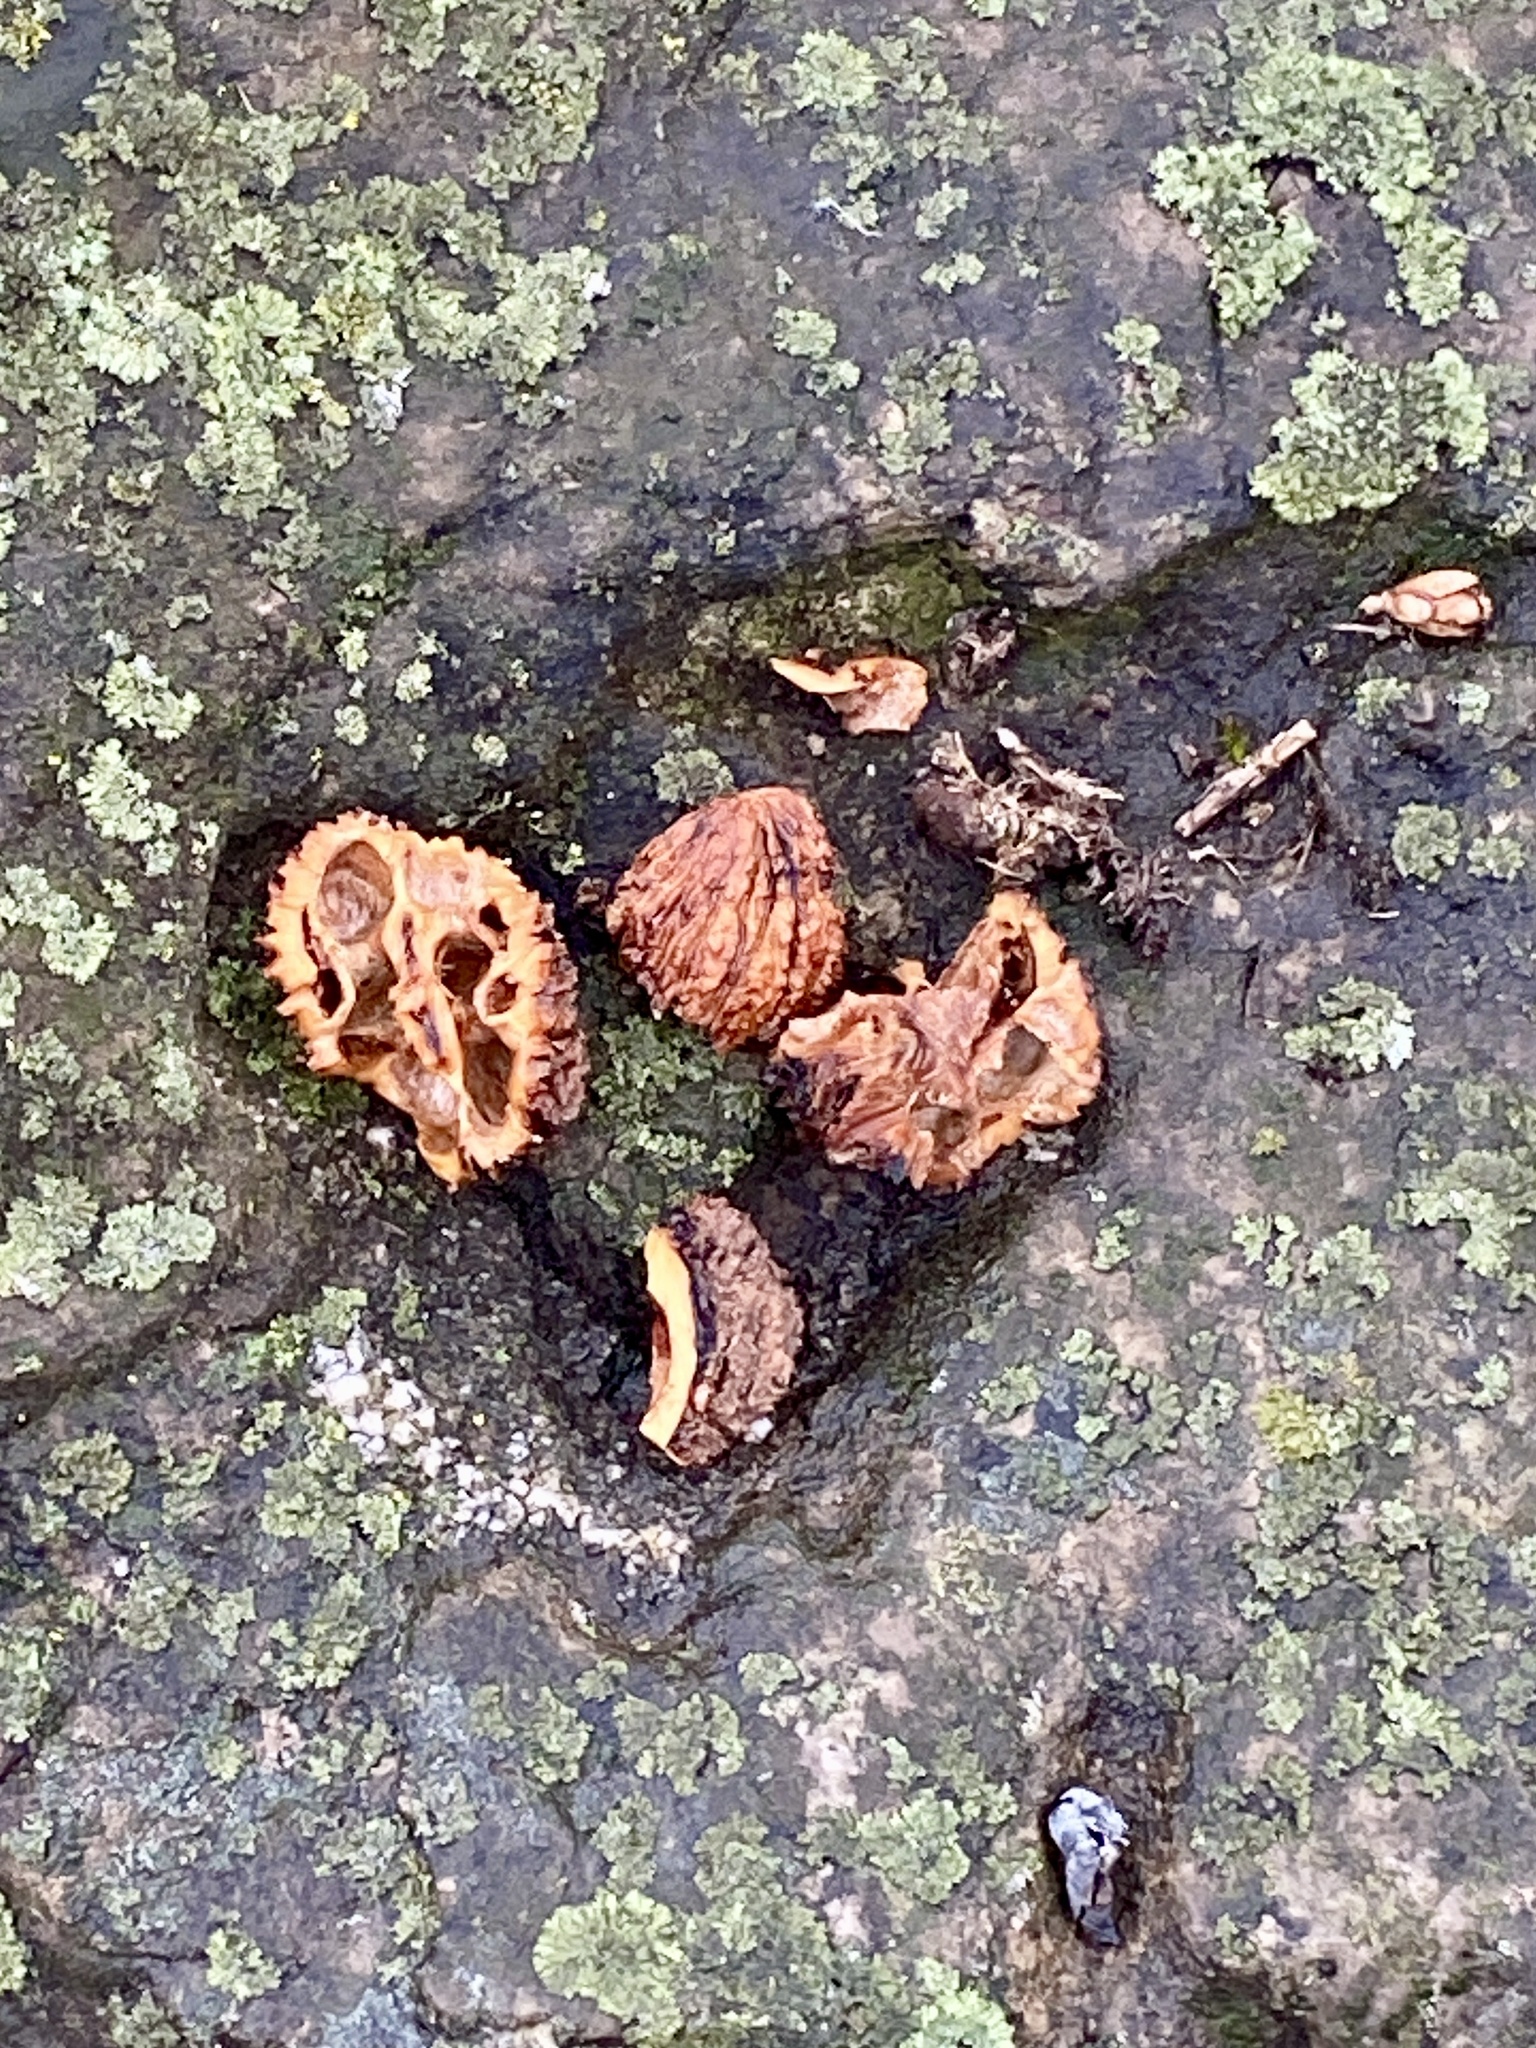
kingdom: Plantae
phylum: Tracheophyta
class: Magnoliopsida
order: Fagales
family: Juglandaceae
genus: Juglans
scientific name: Juglans nigra
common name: Black walnut
